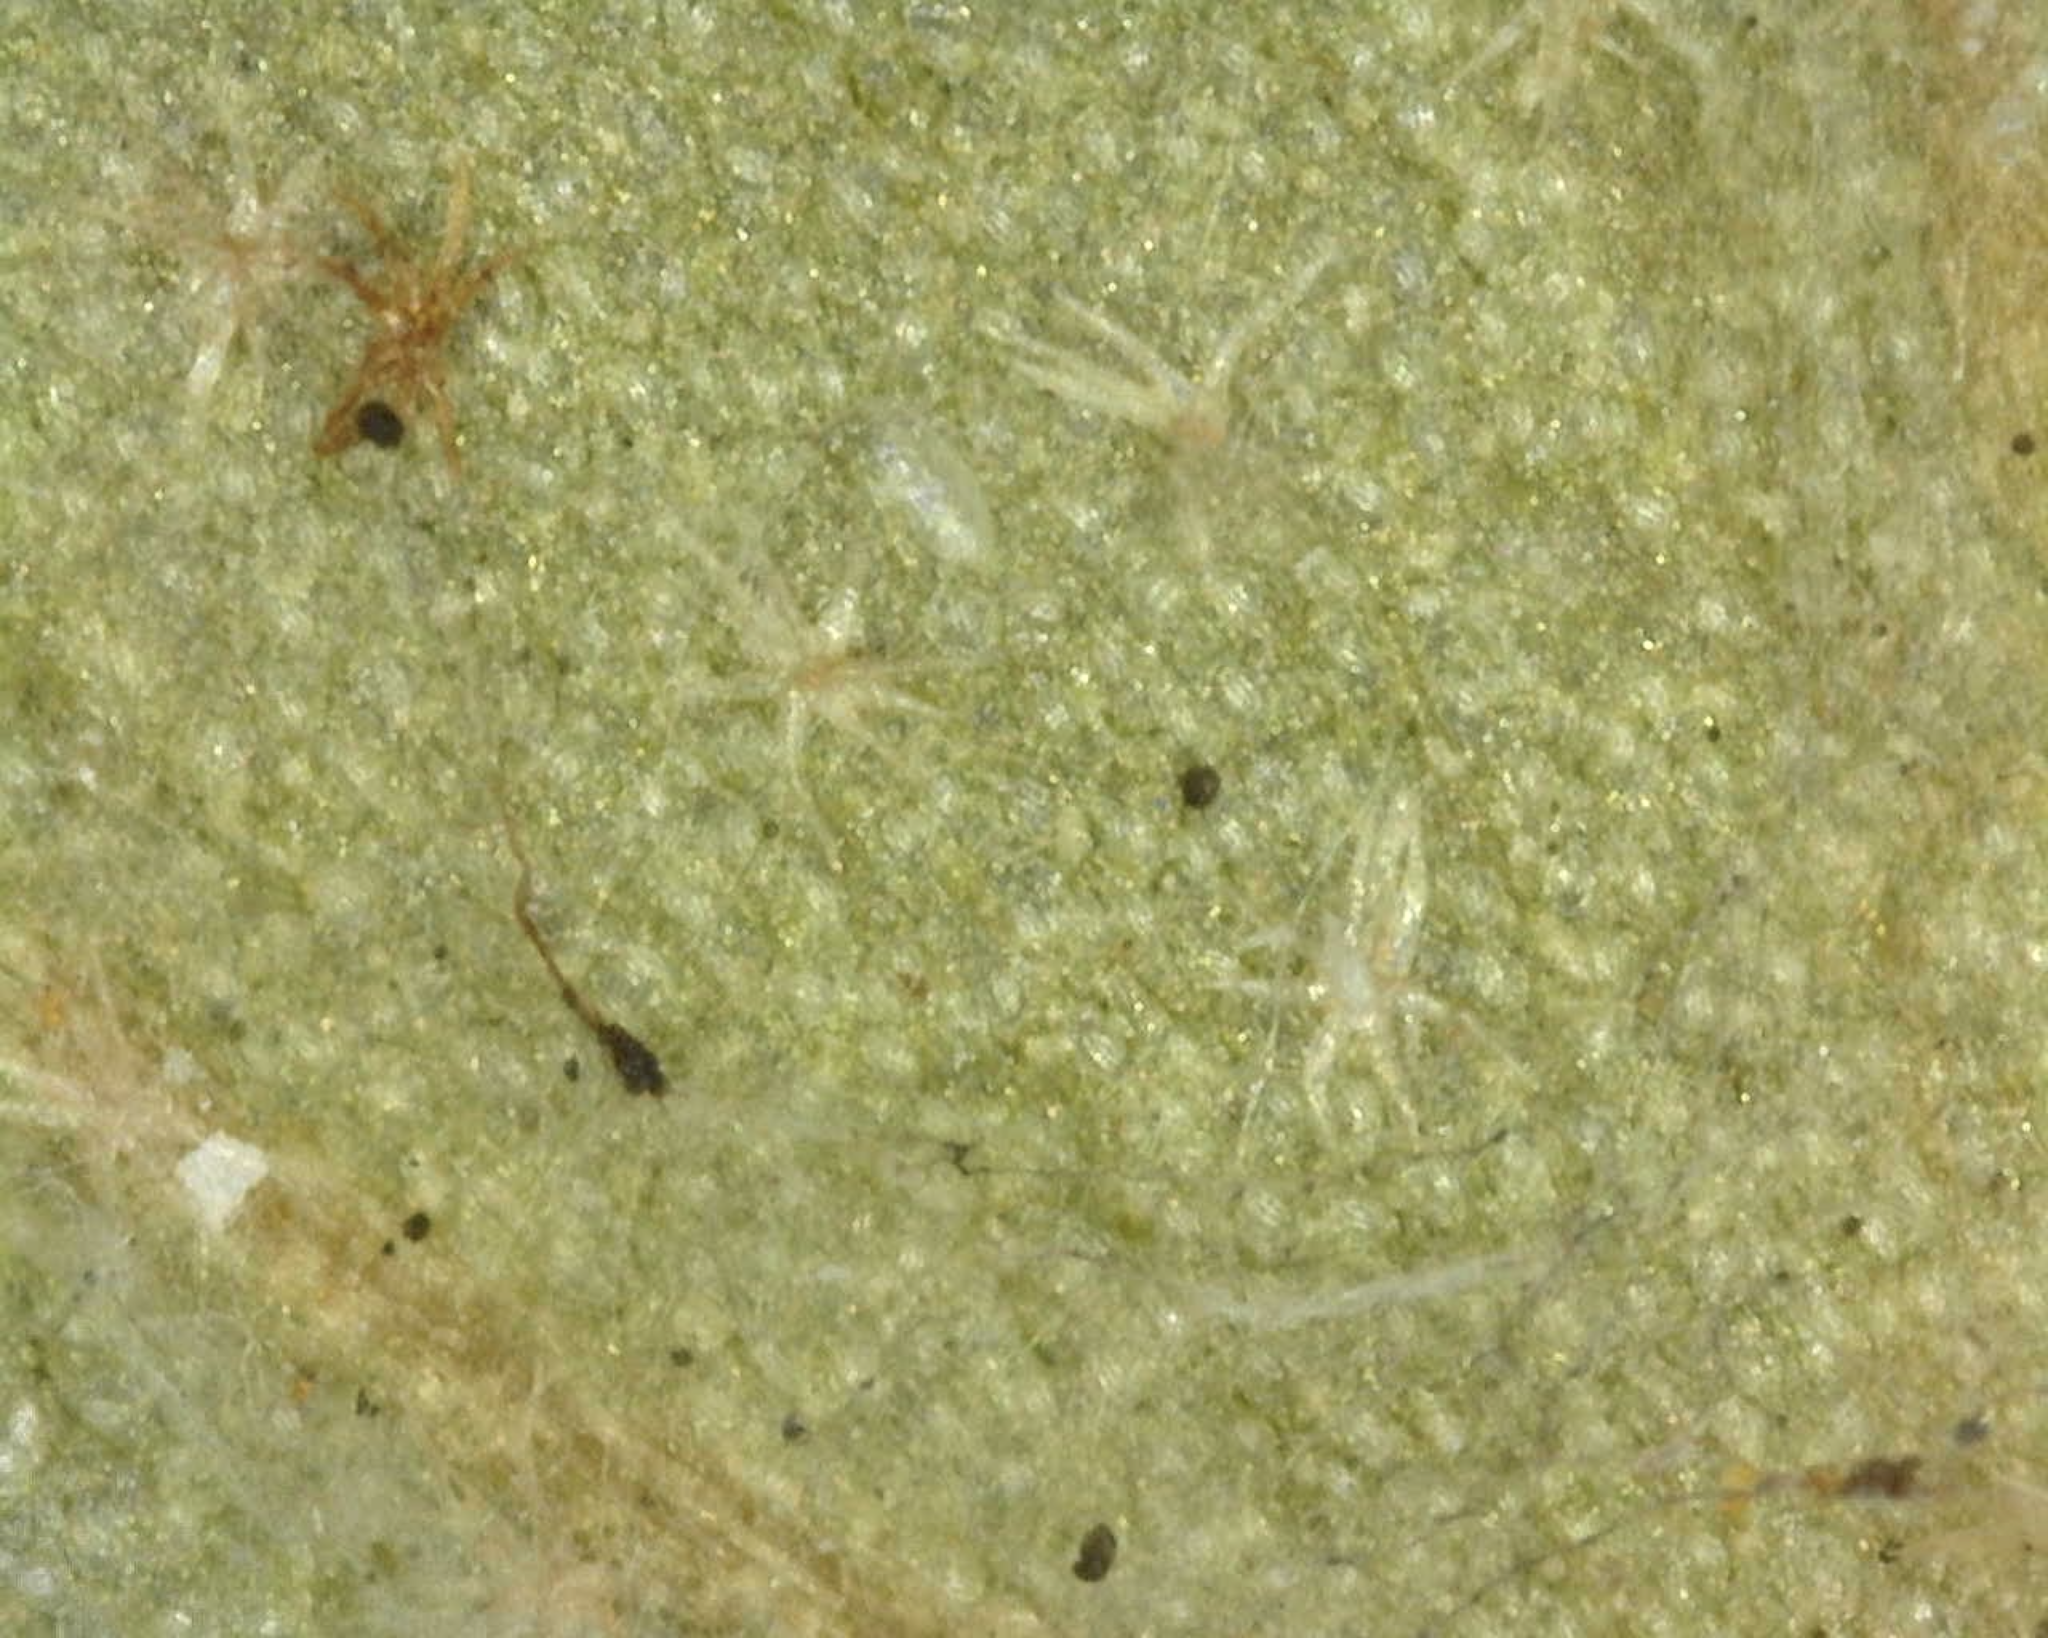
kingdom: Plantae
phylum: Tracheophyta
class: Magnoliopsida
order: Apiales
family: Araliaceae
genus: Hedera
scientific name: Hedera hibernica
